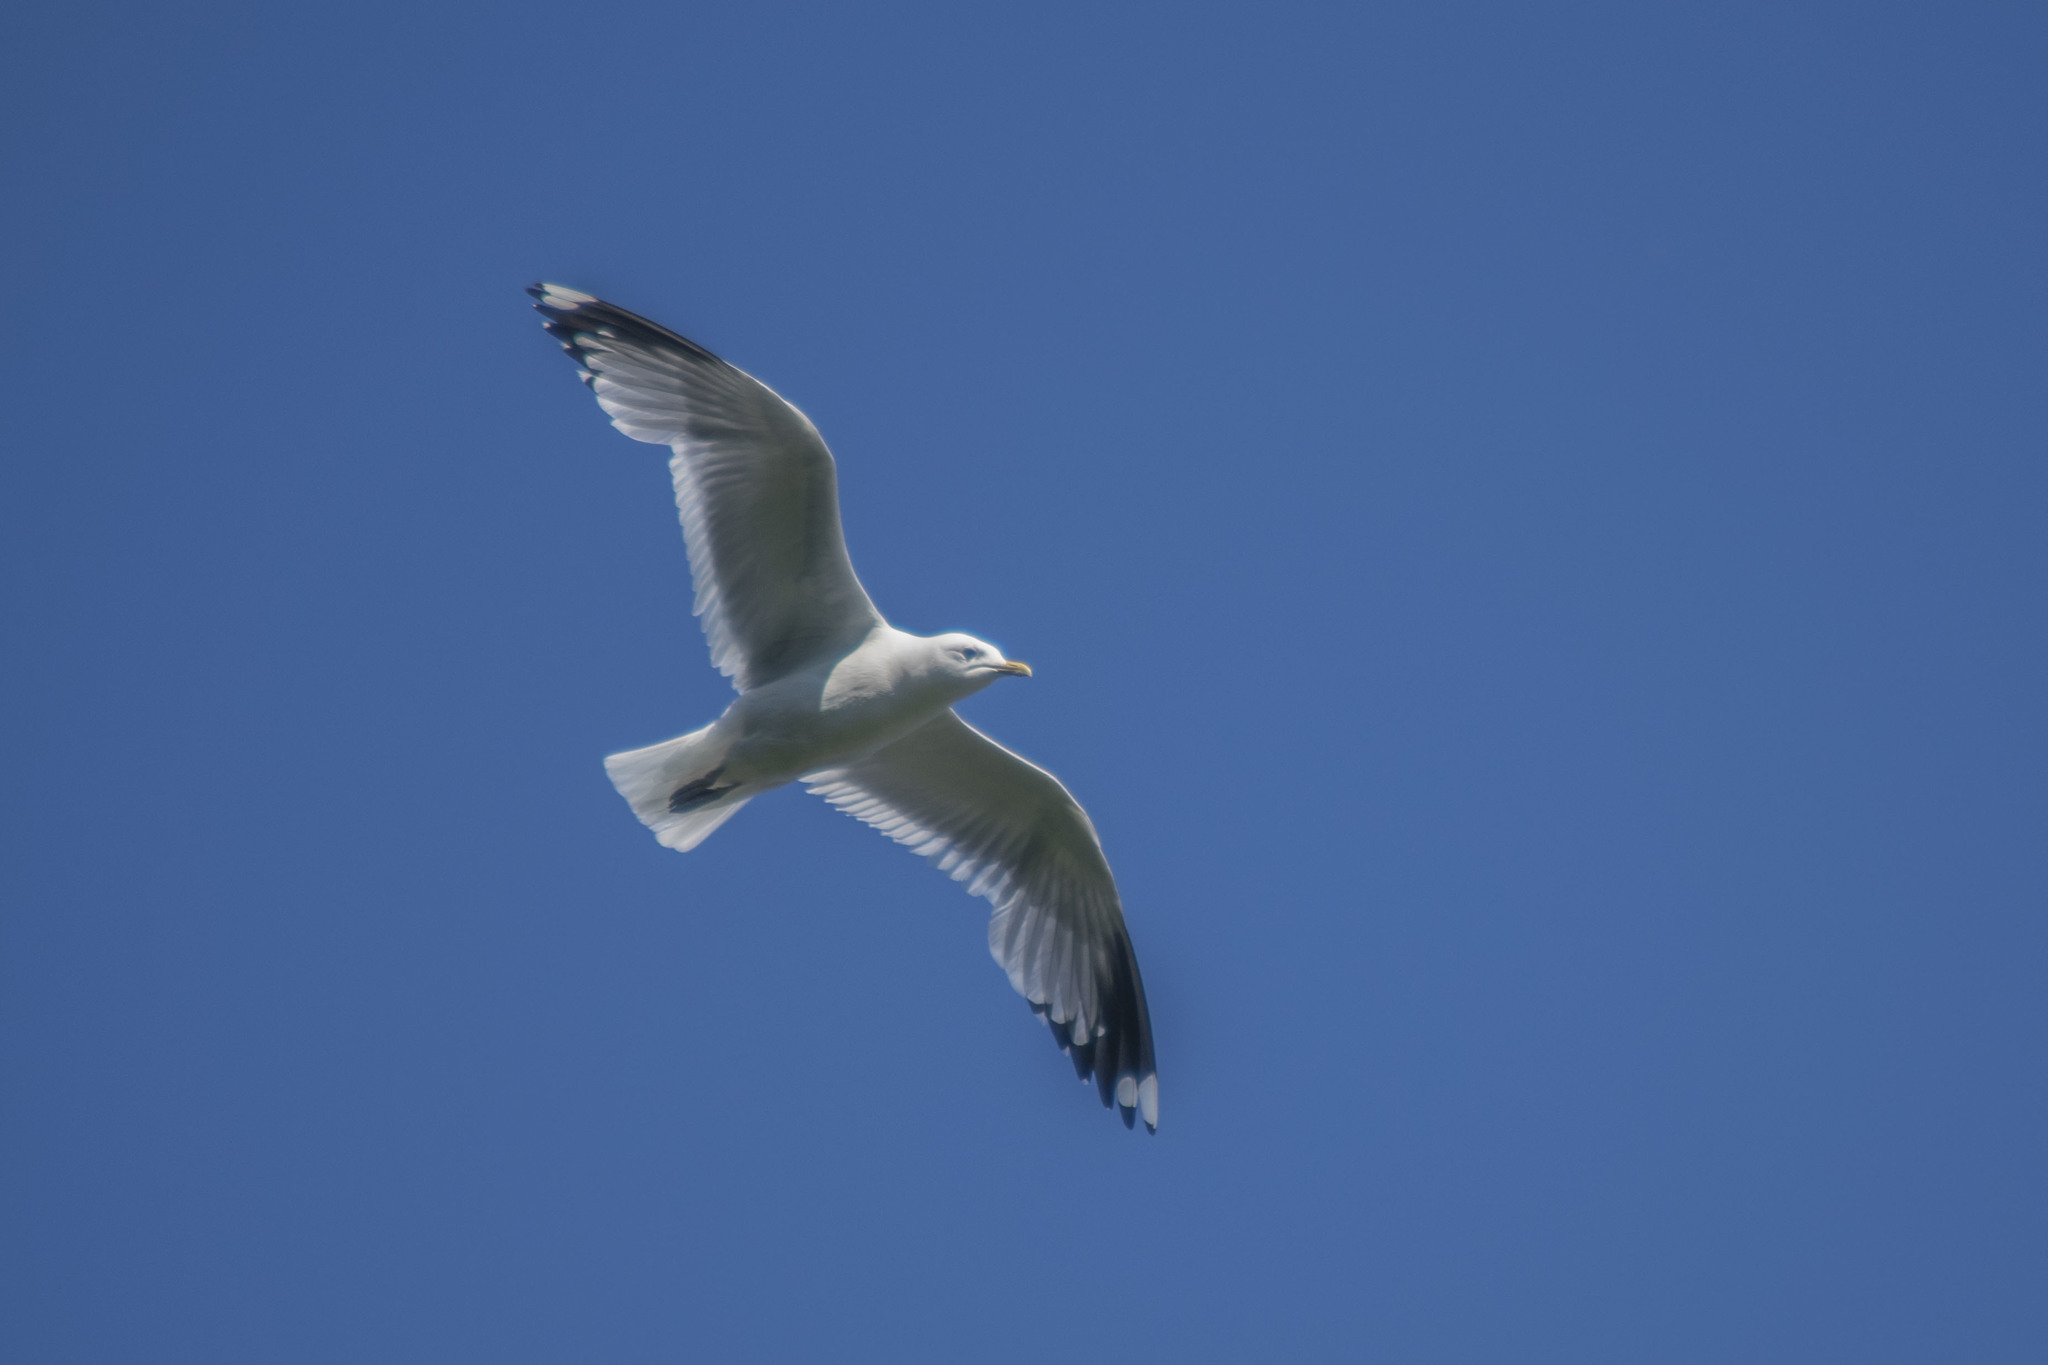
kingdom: Animalia
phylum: Chordata
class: Aves
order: Charadriiformes
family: Laridae
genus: Larus
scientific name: Larus canus
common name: Mew gull
